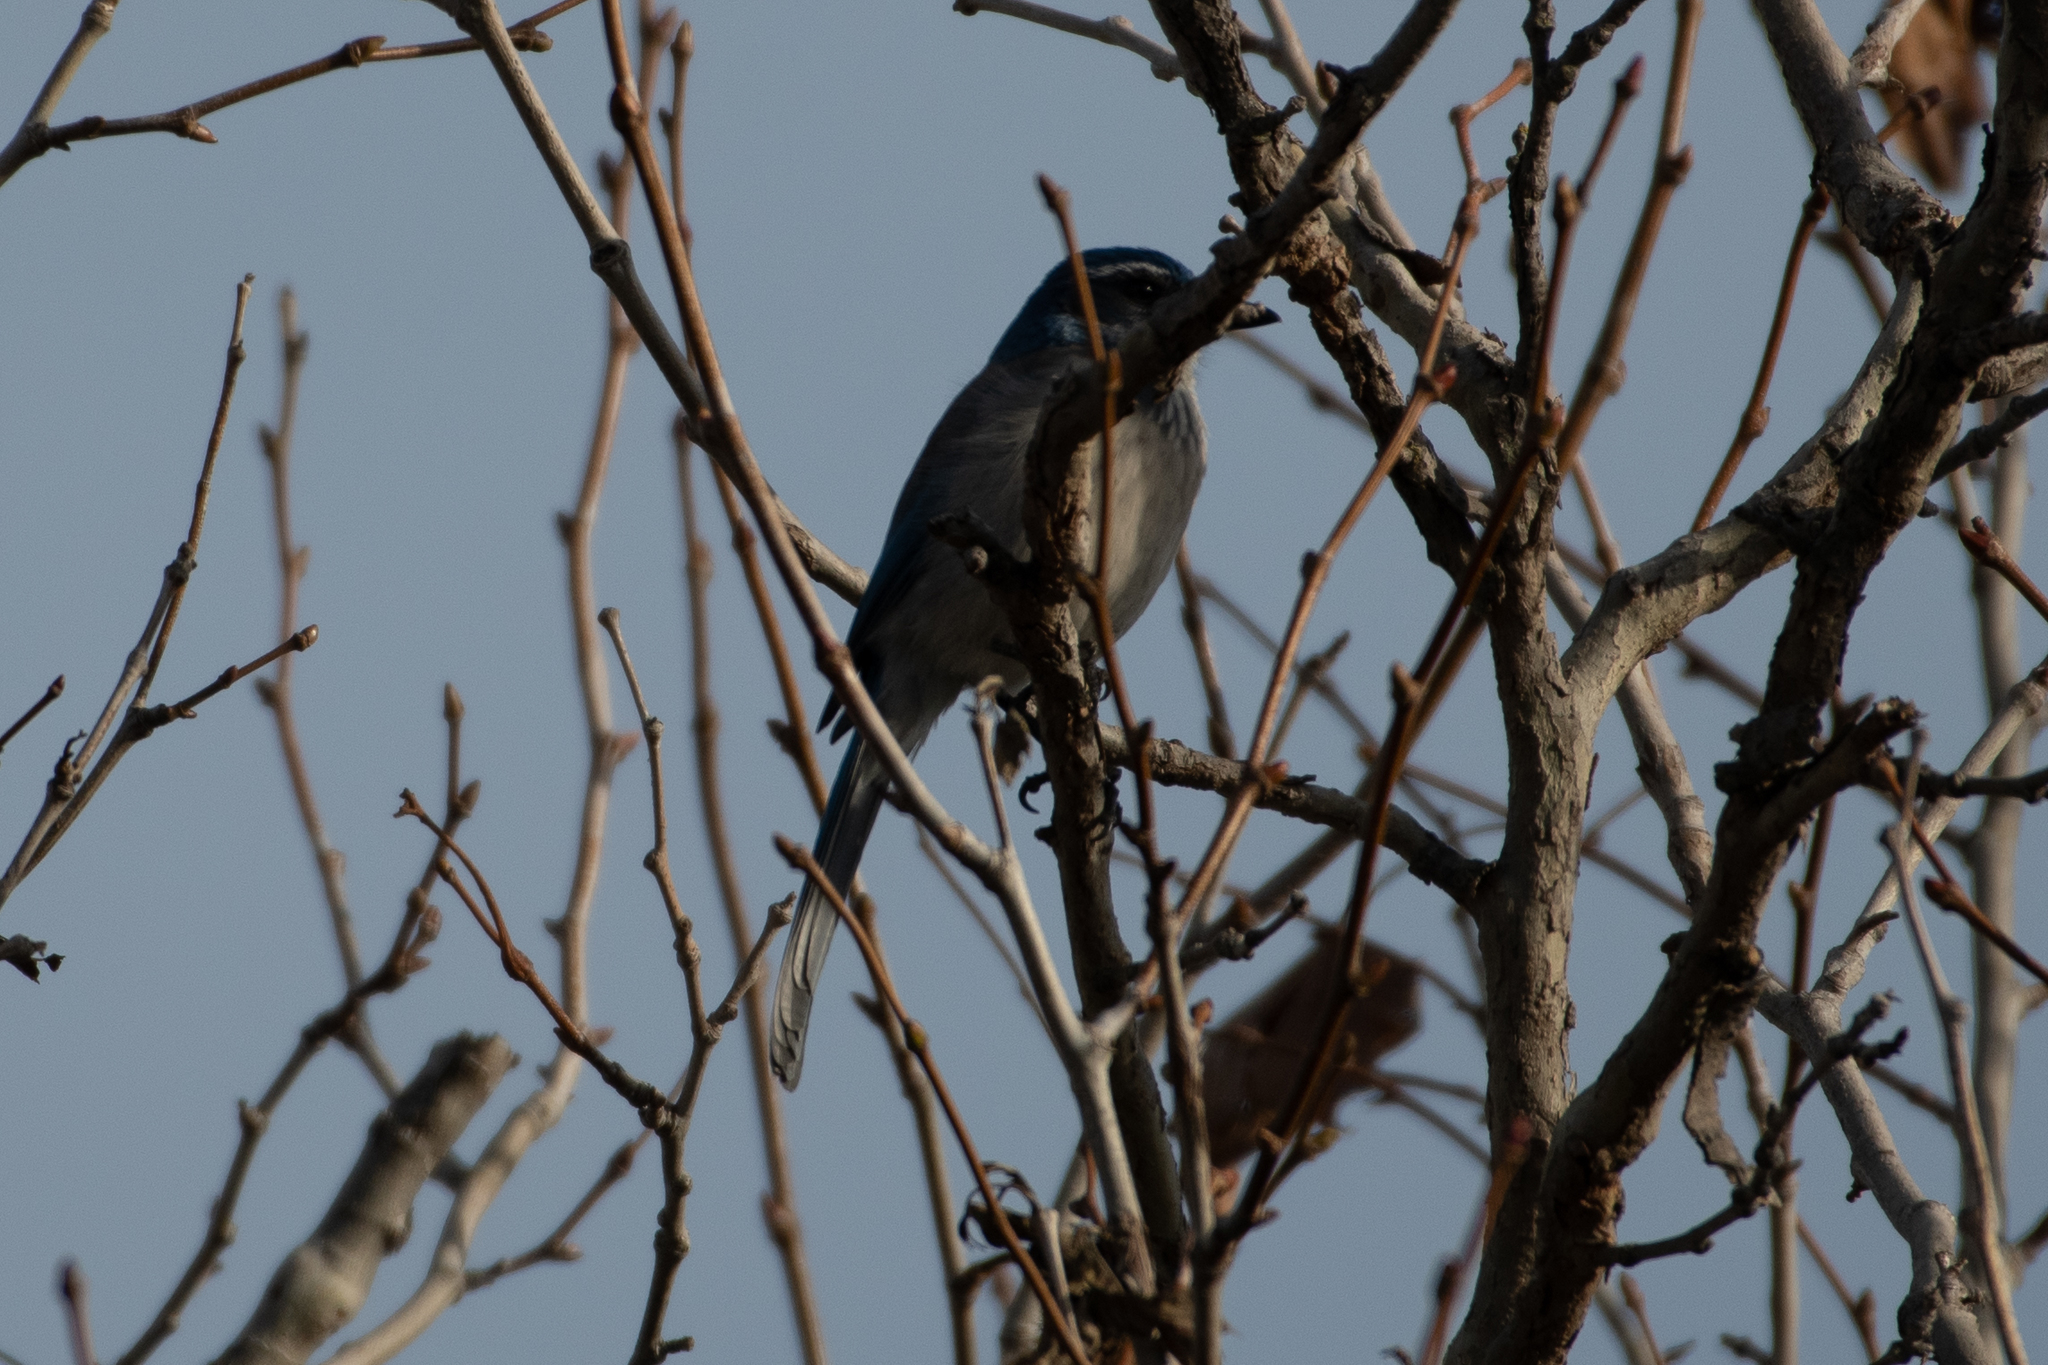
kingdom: Animalia
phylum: Chordata
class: Aves
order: Passeriformes
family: Corvidae
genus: Aphelocoma
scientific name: Aphelocoma californica
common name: California scrub-jay
